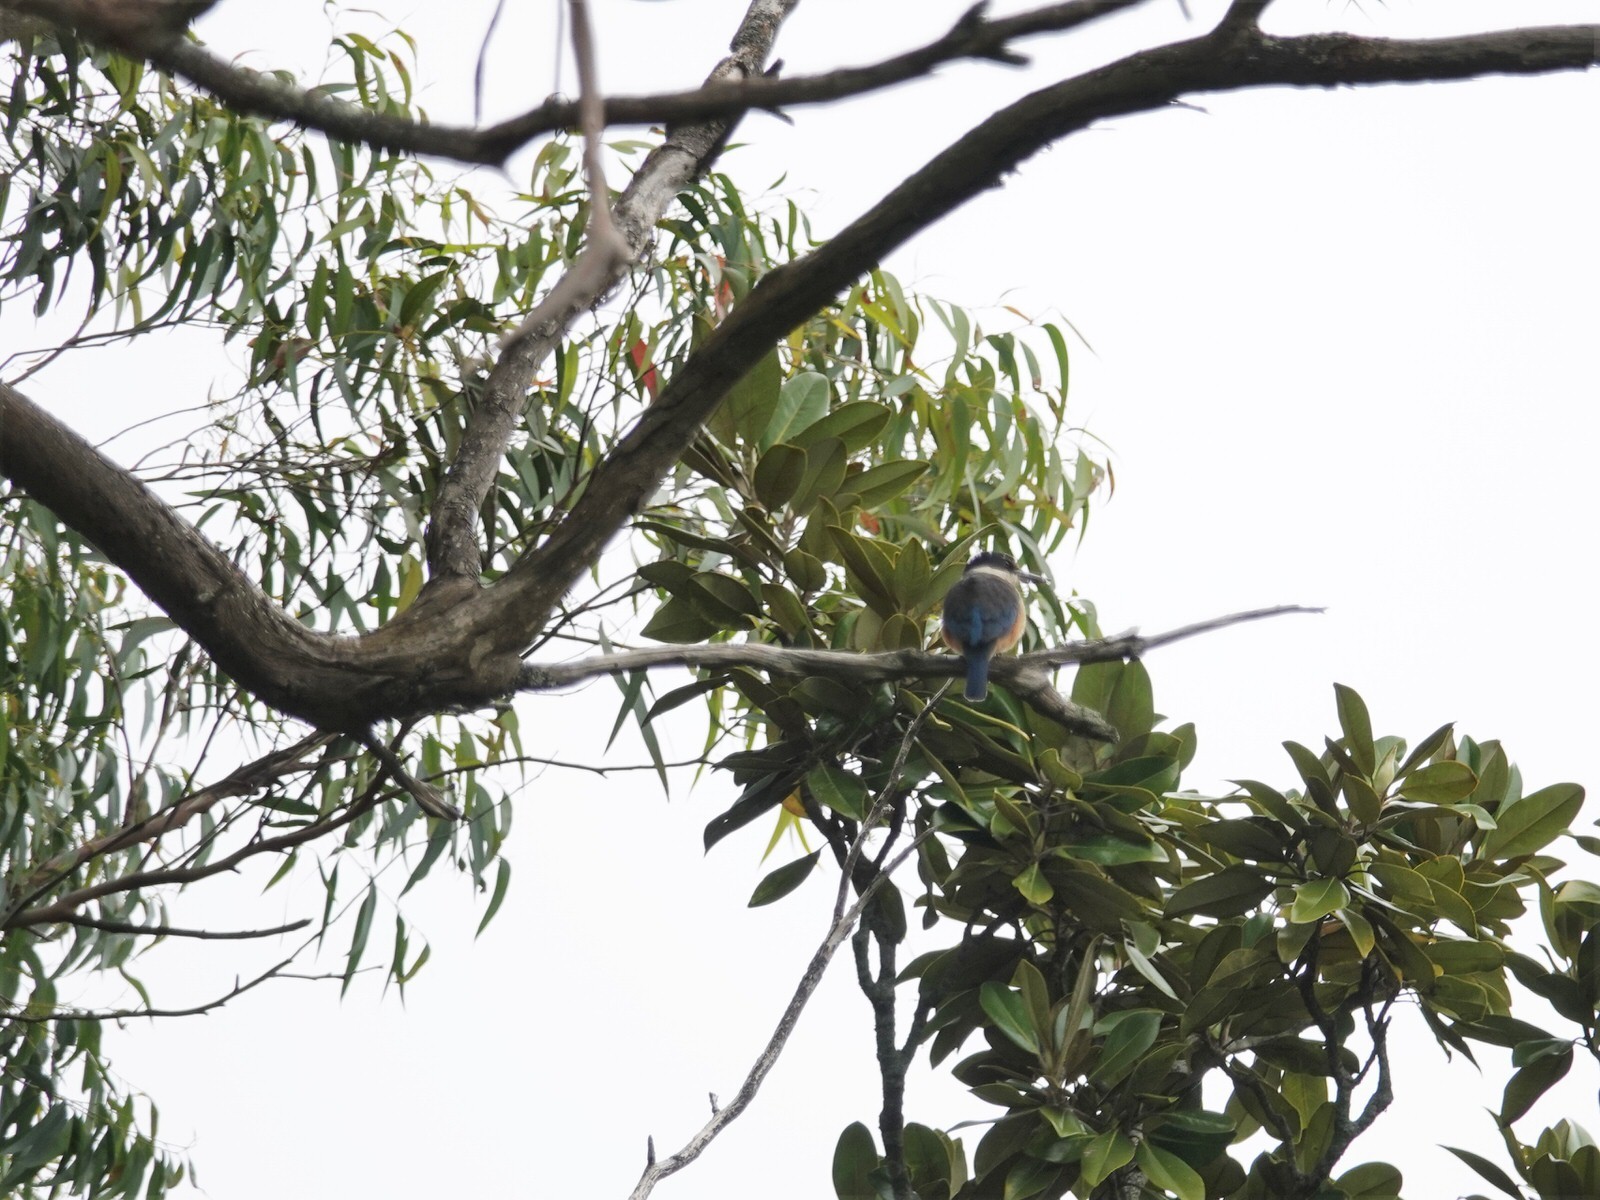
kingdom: Animalia
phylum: Chordata
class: Aves
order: Coraciiformes
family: Alcedinidae
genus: Todiramphus
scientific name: Todiramphus sanctus
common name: Sacred kingfisher
